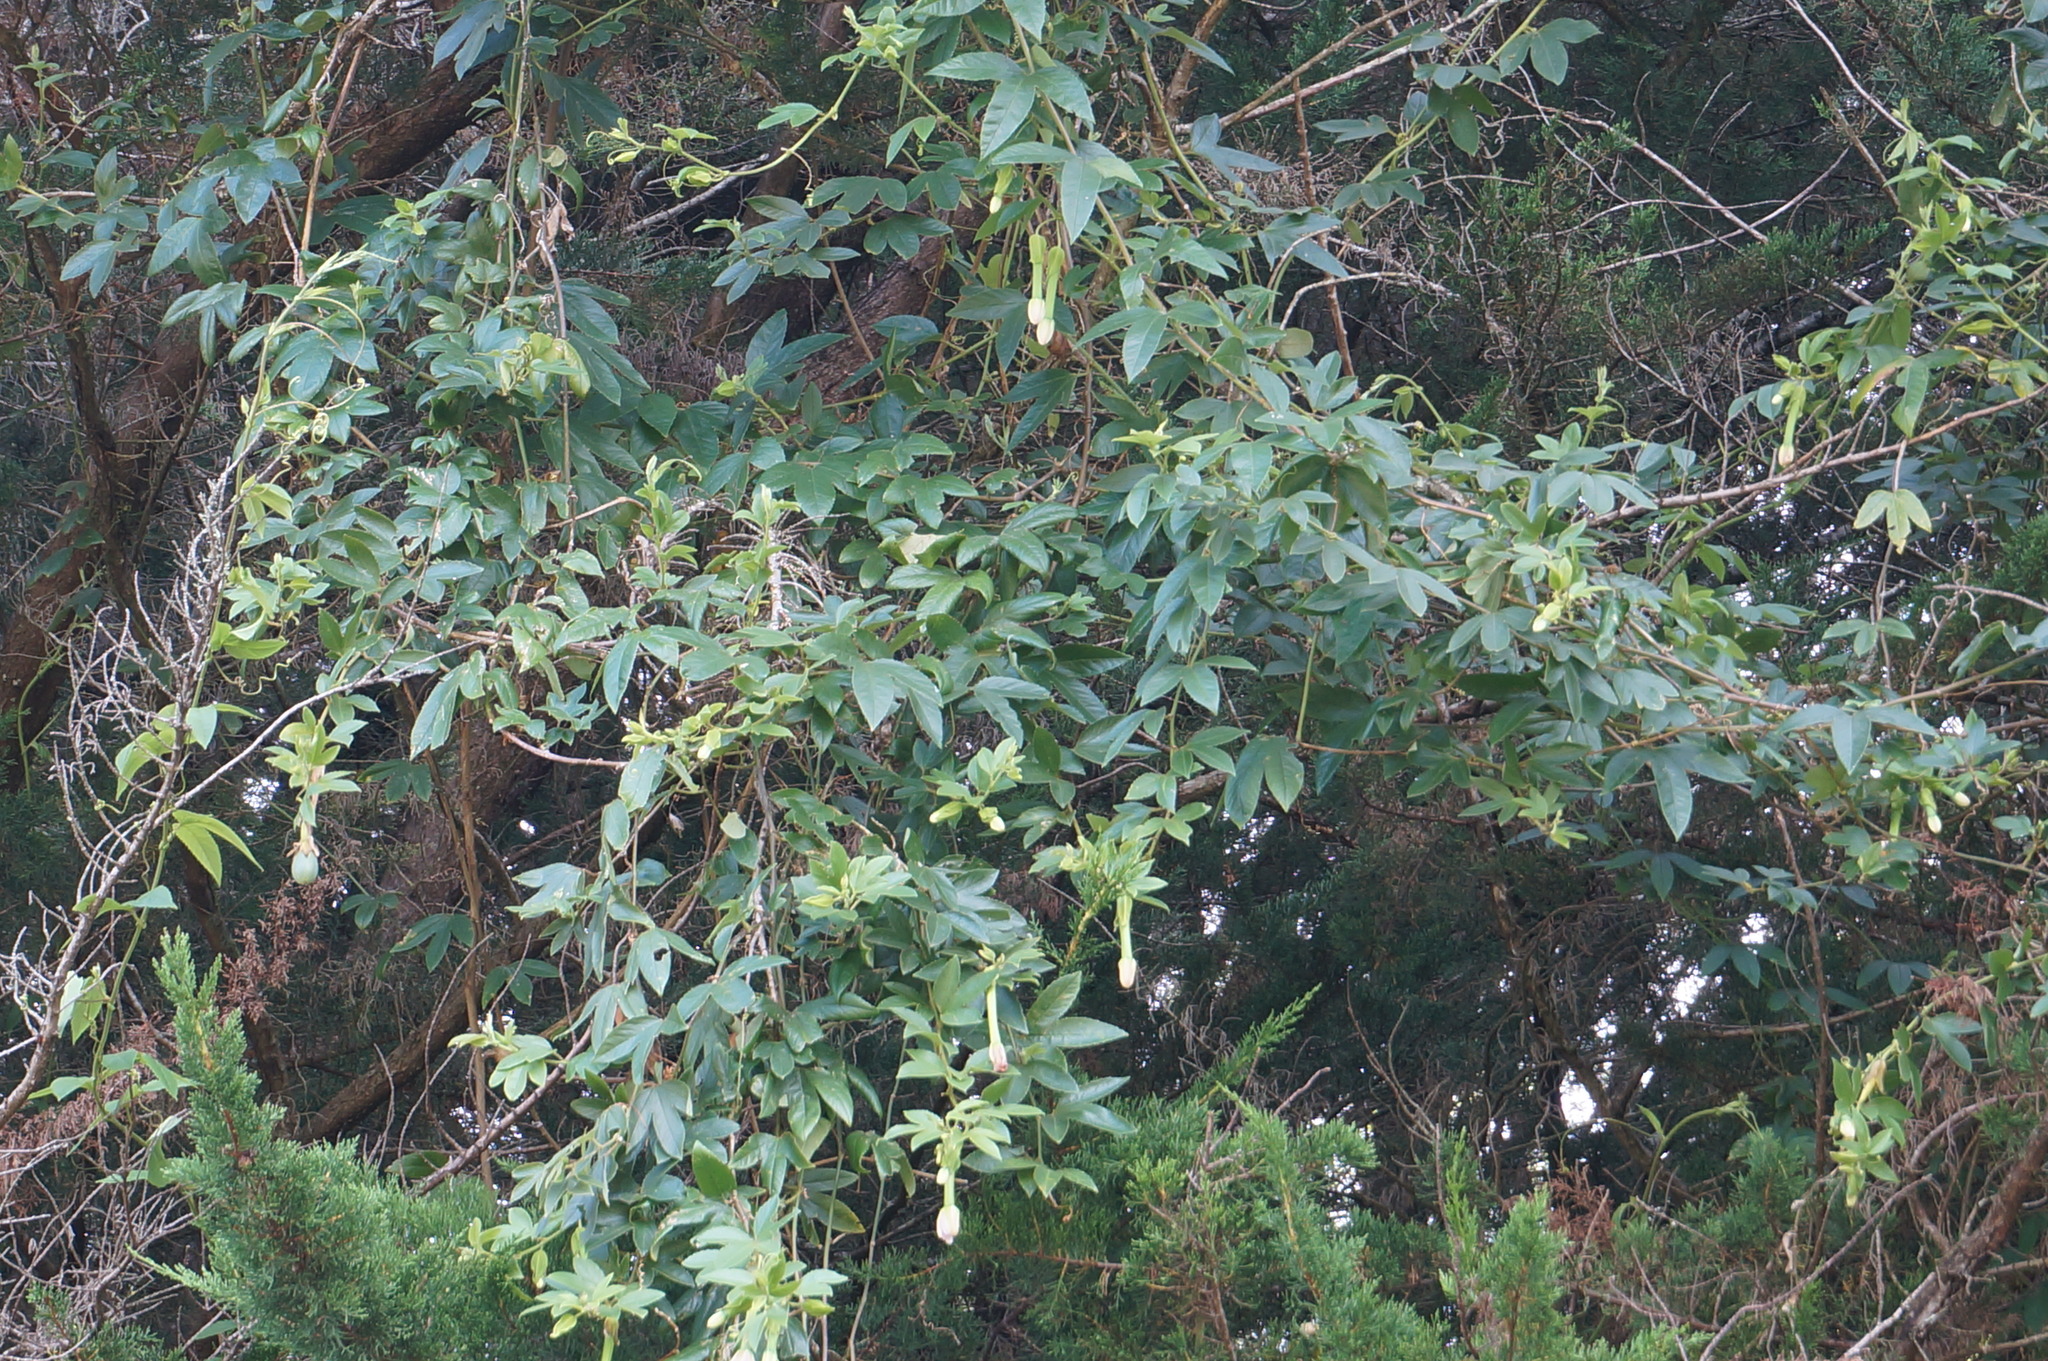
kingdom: Plantae
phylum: Tracheophyta
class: Magnoliopsida
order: Malpighiales
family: Passifloraceae
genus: Passiflora
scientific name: Passiflora tripartita
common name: Banana poka
